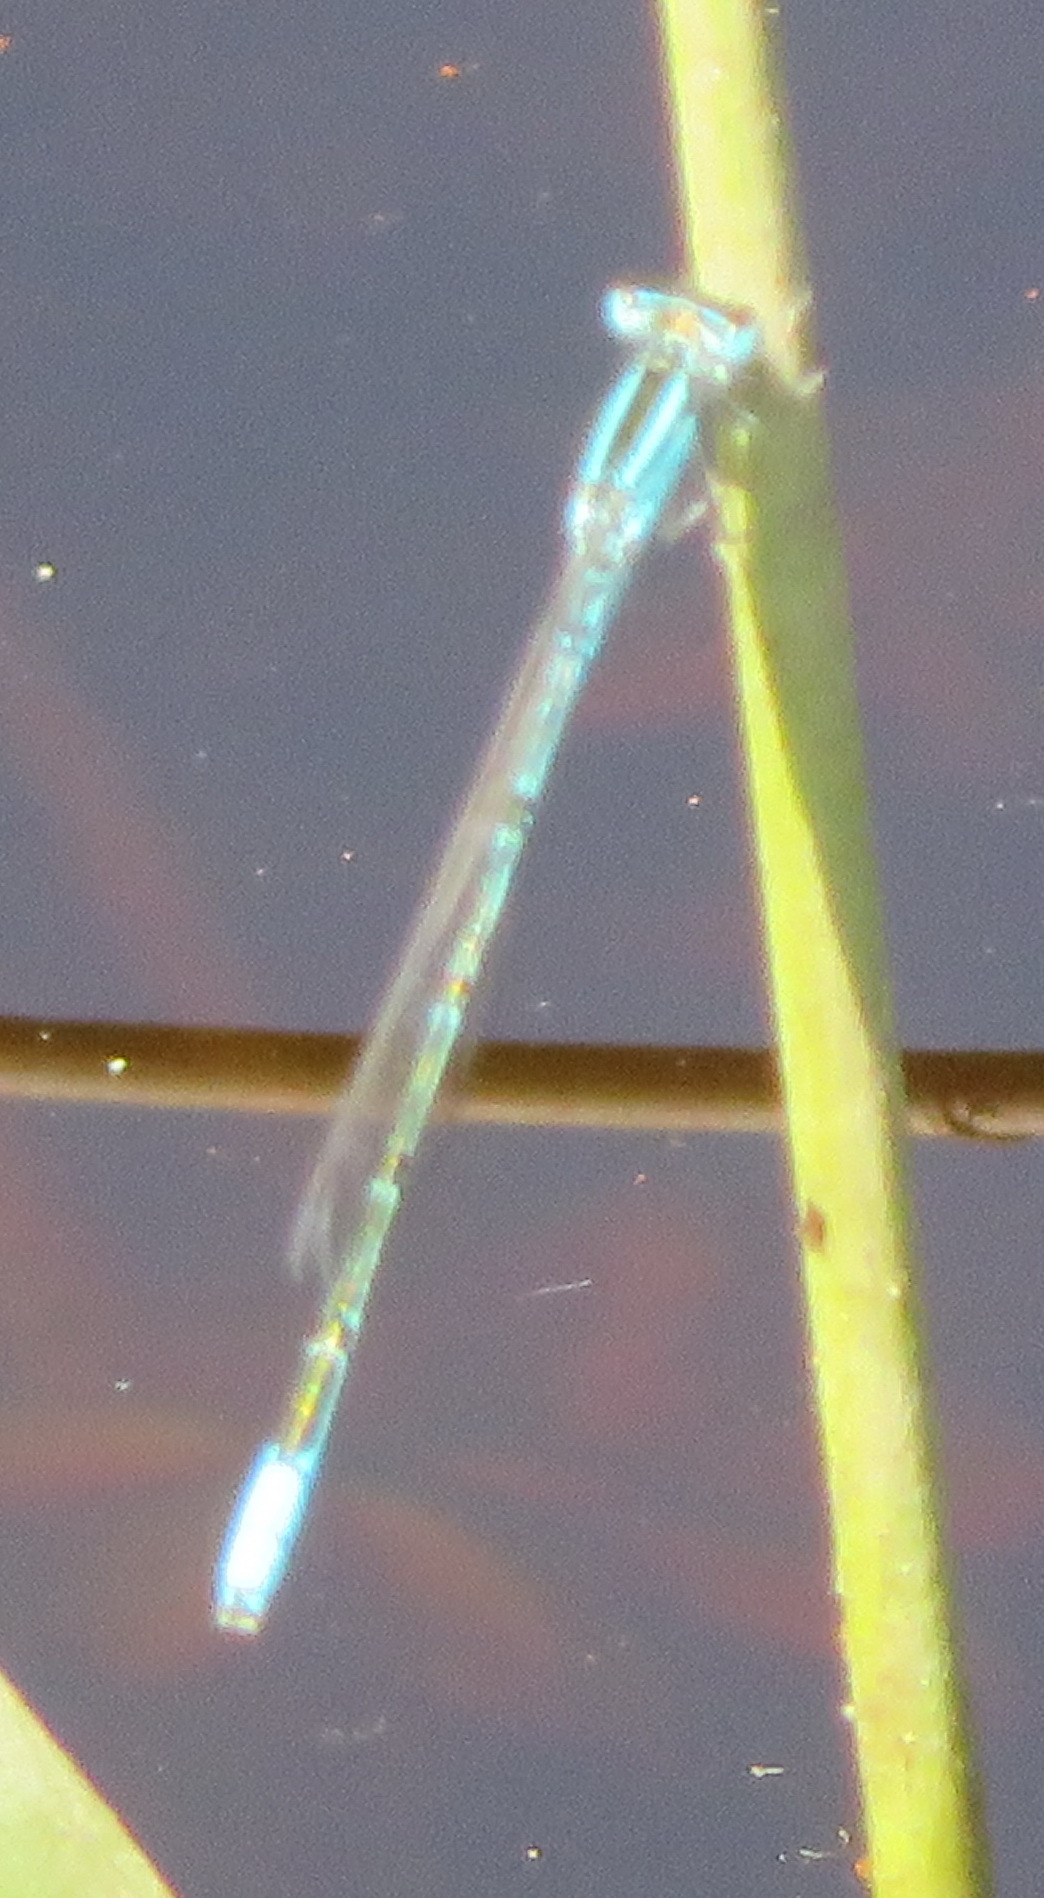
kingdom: Animalia
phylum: Arthropoda
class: Insecta
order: Odonata
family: Coenagrionidae
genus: Africallagma
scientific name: Africallagma glaucum
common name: Swamp bluet
